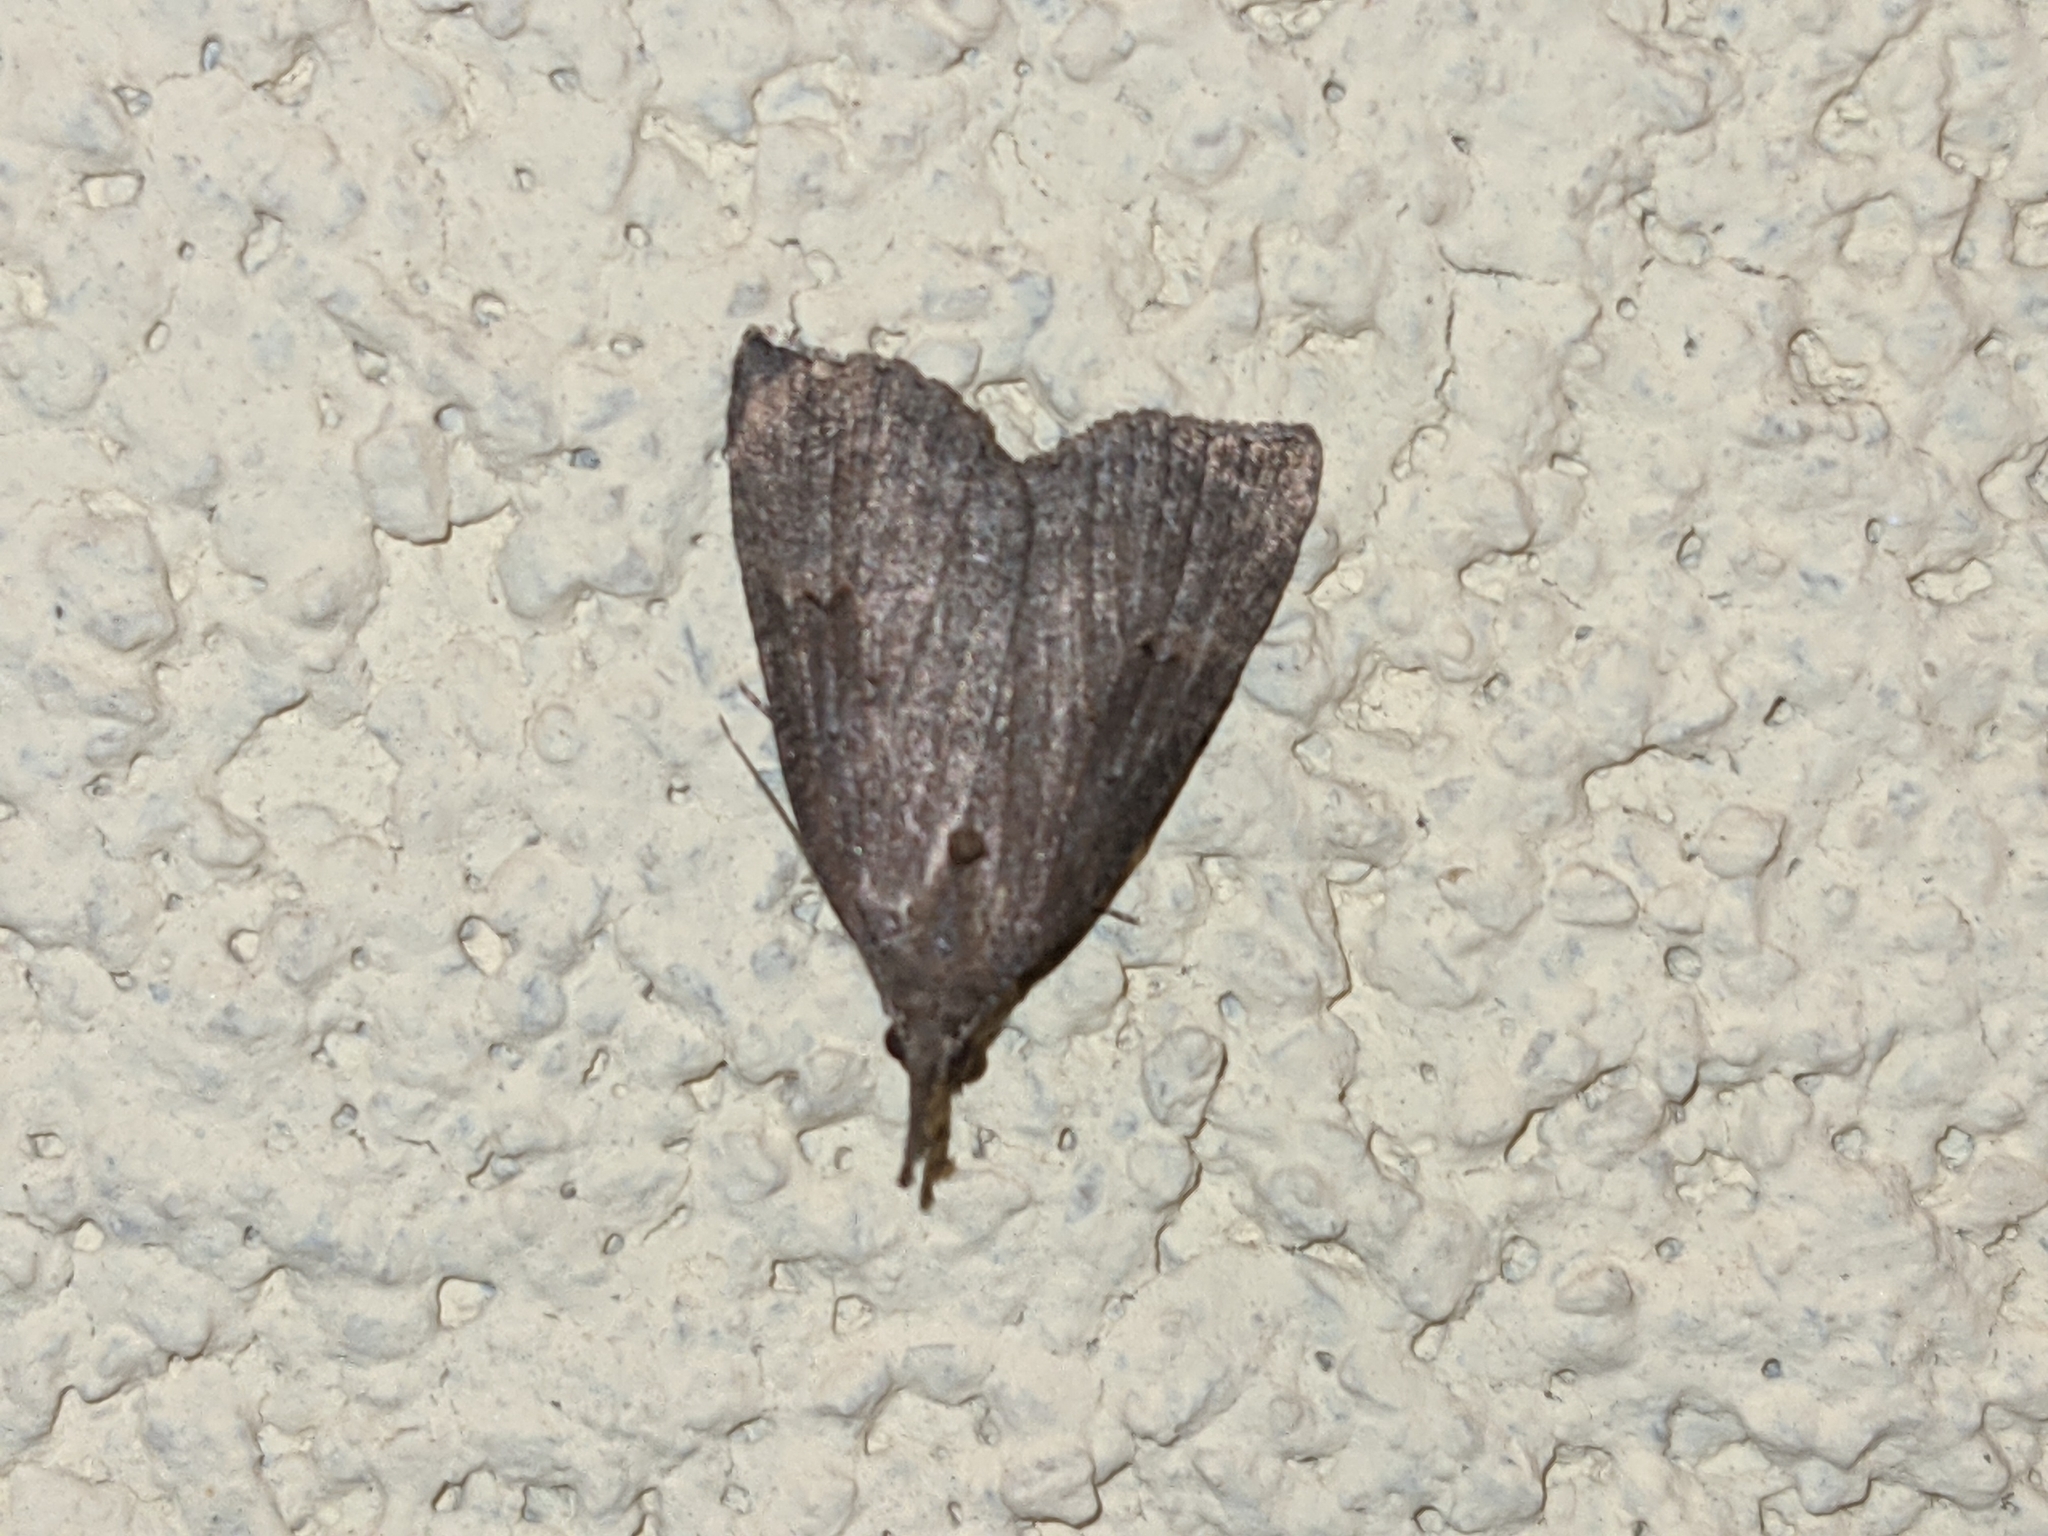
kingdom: Animalia
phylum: Arthropoda
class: Insecta
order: Lepidoptera
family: Erebidae
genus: Hypena
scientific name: Hypena rostralis
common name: Buttoned snout
